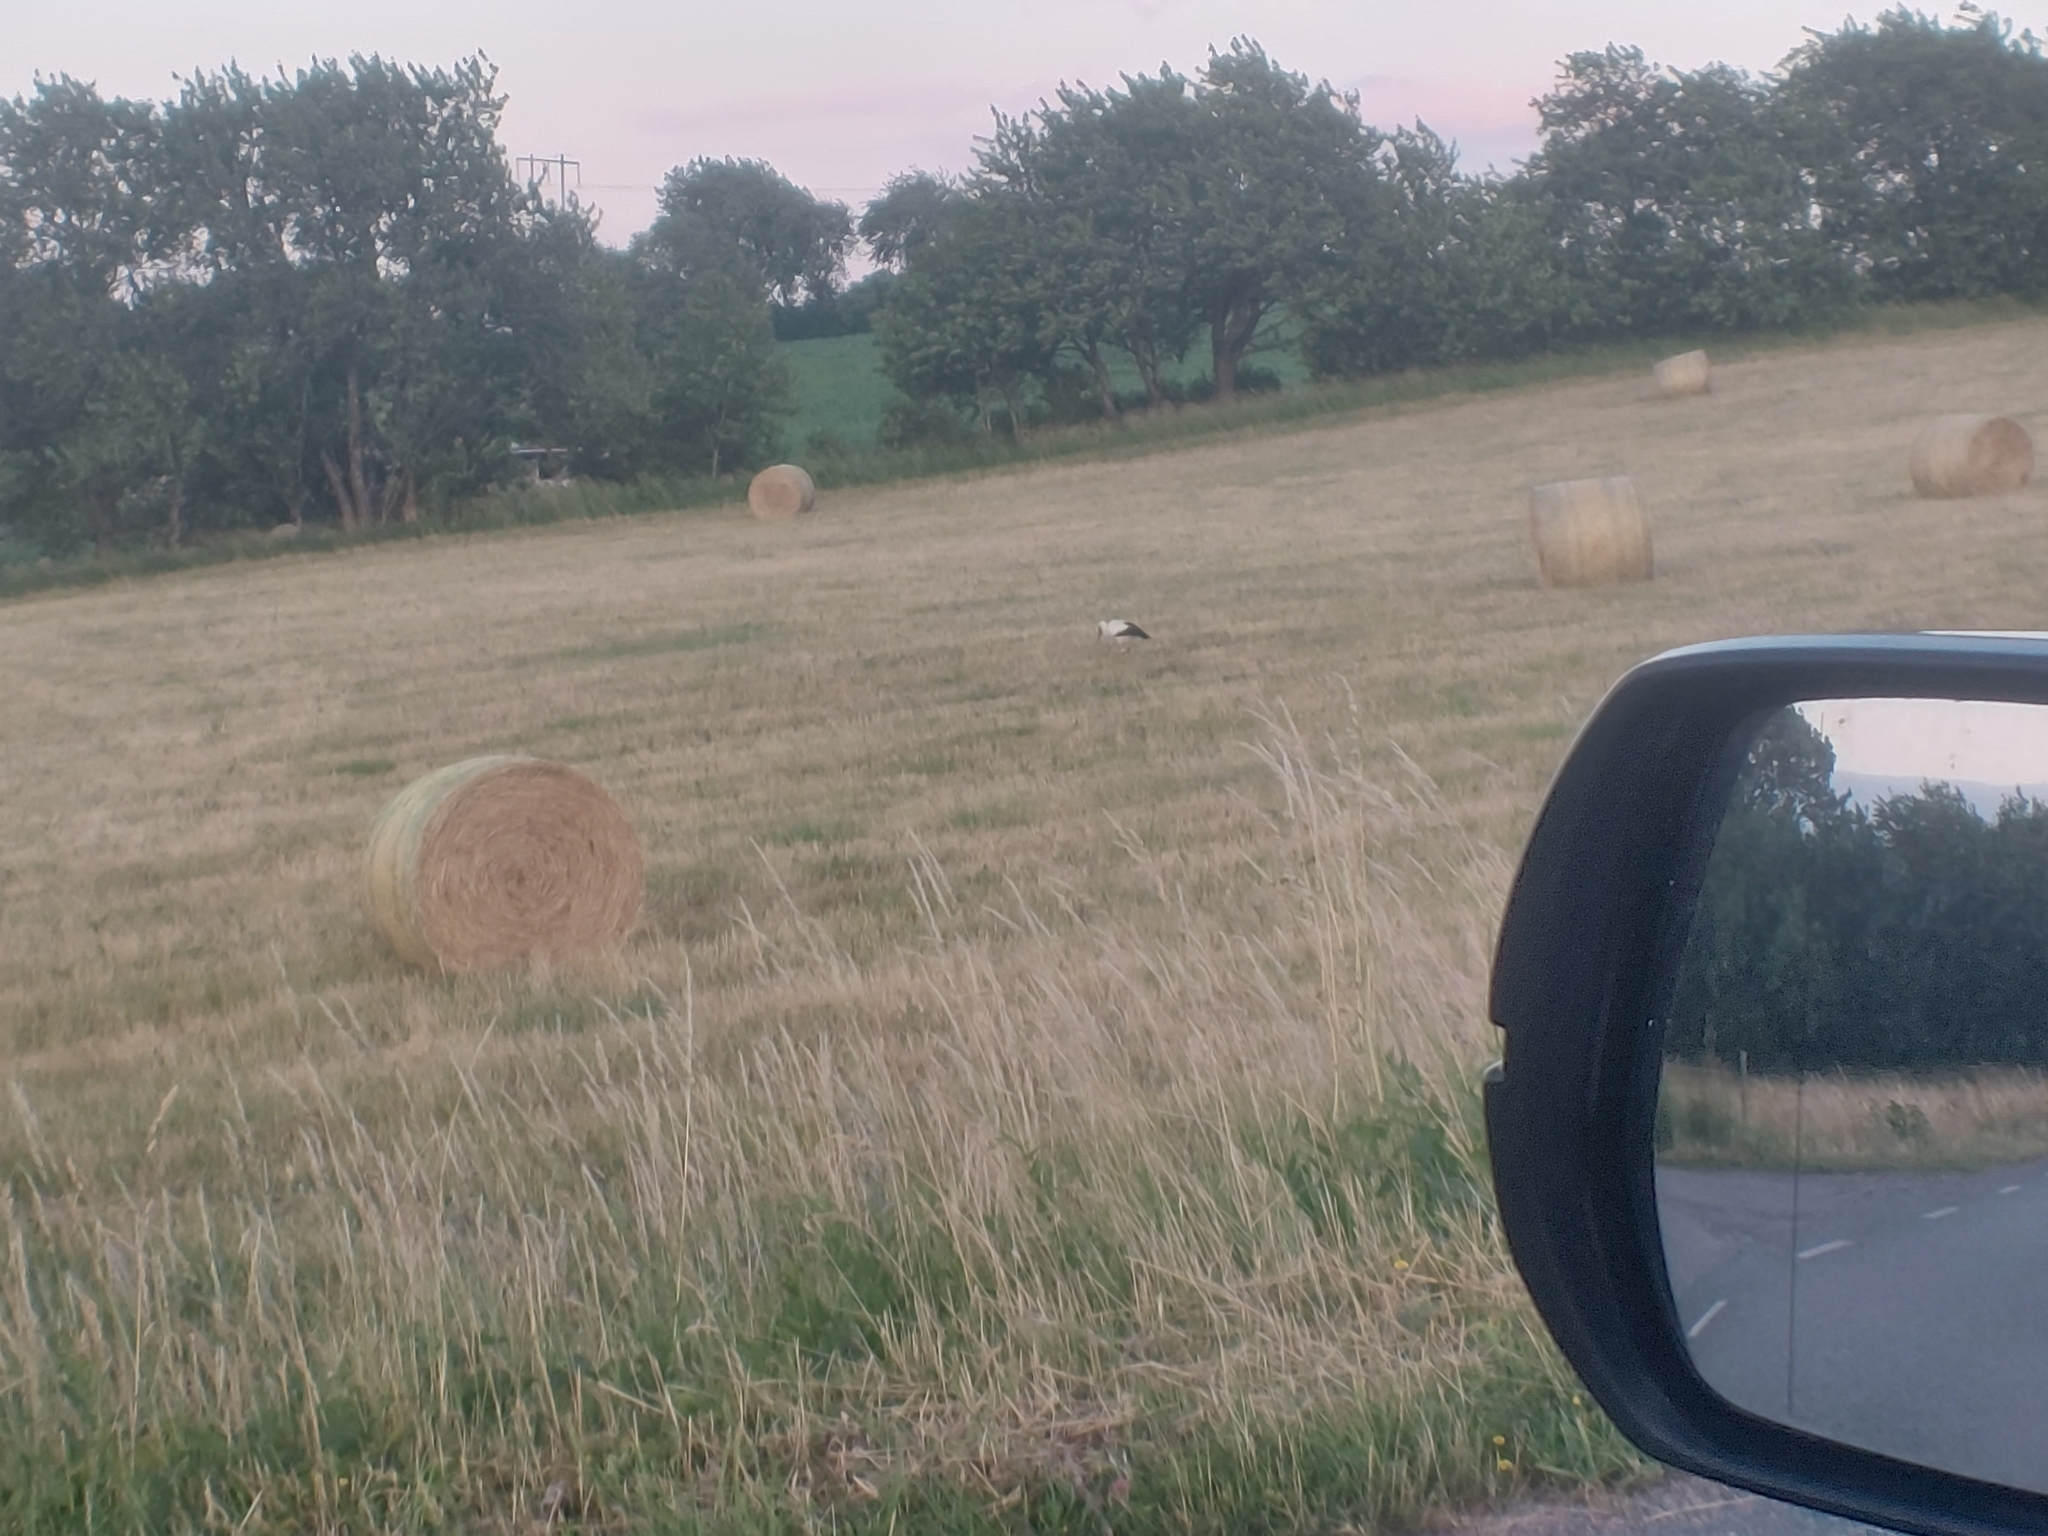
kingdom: Animalia
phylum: Chordata
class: Aves
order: Ciconiiformes
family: Ciconiidae
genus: Ciconia
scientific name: Ciconia ciconia
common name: White stork
